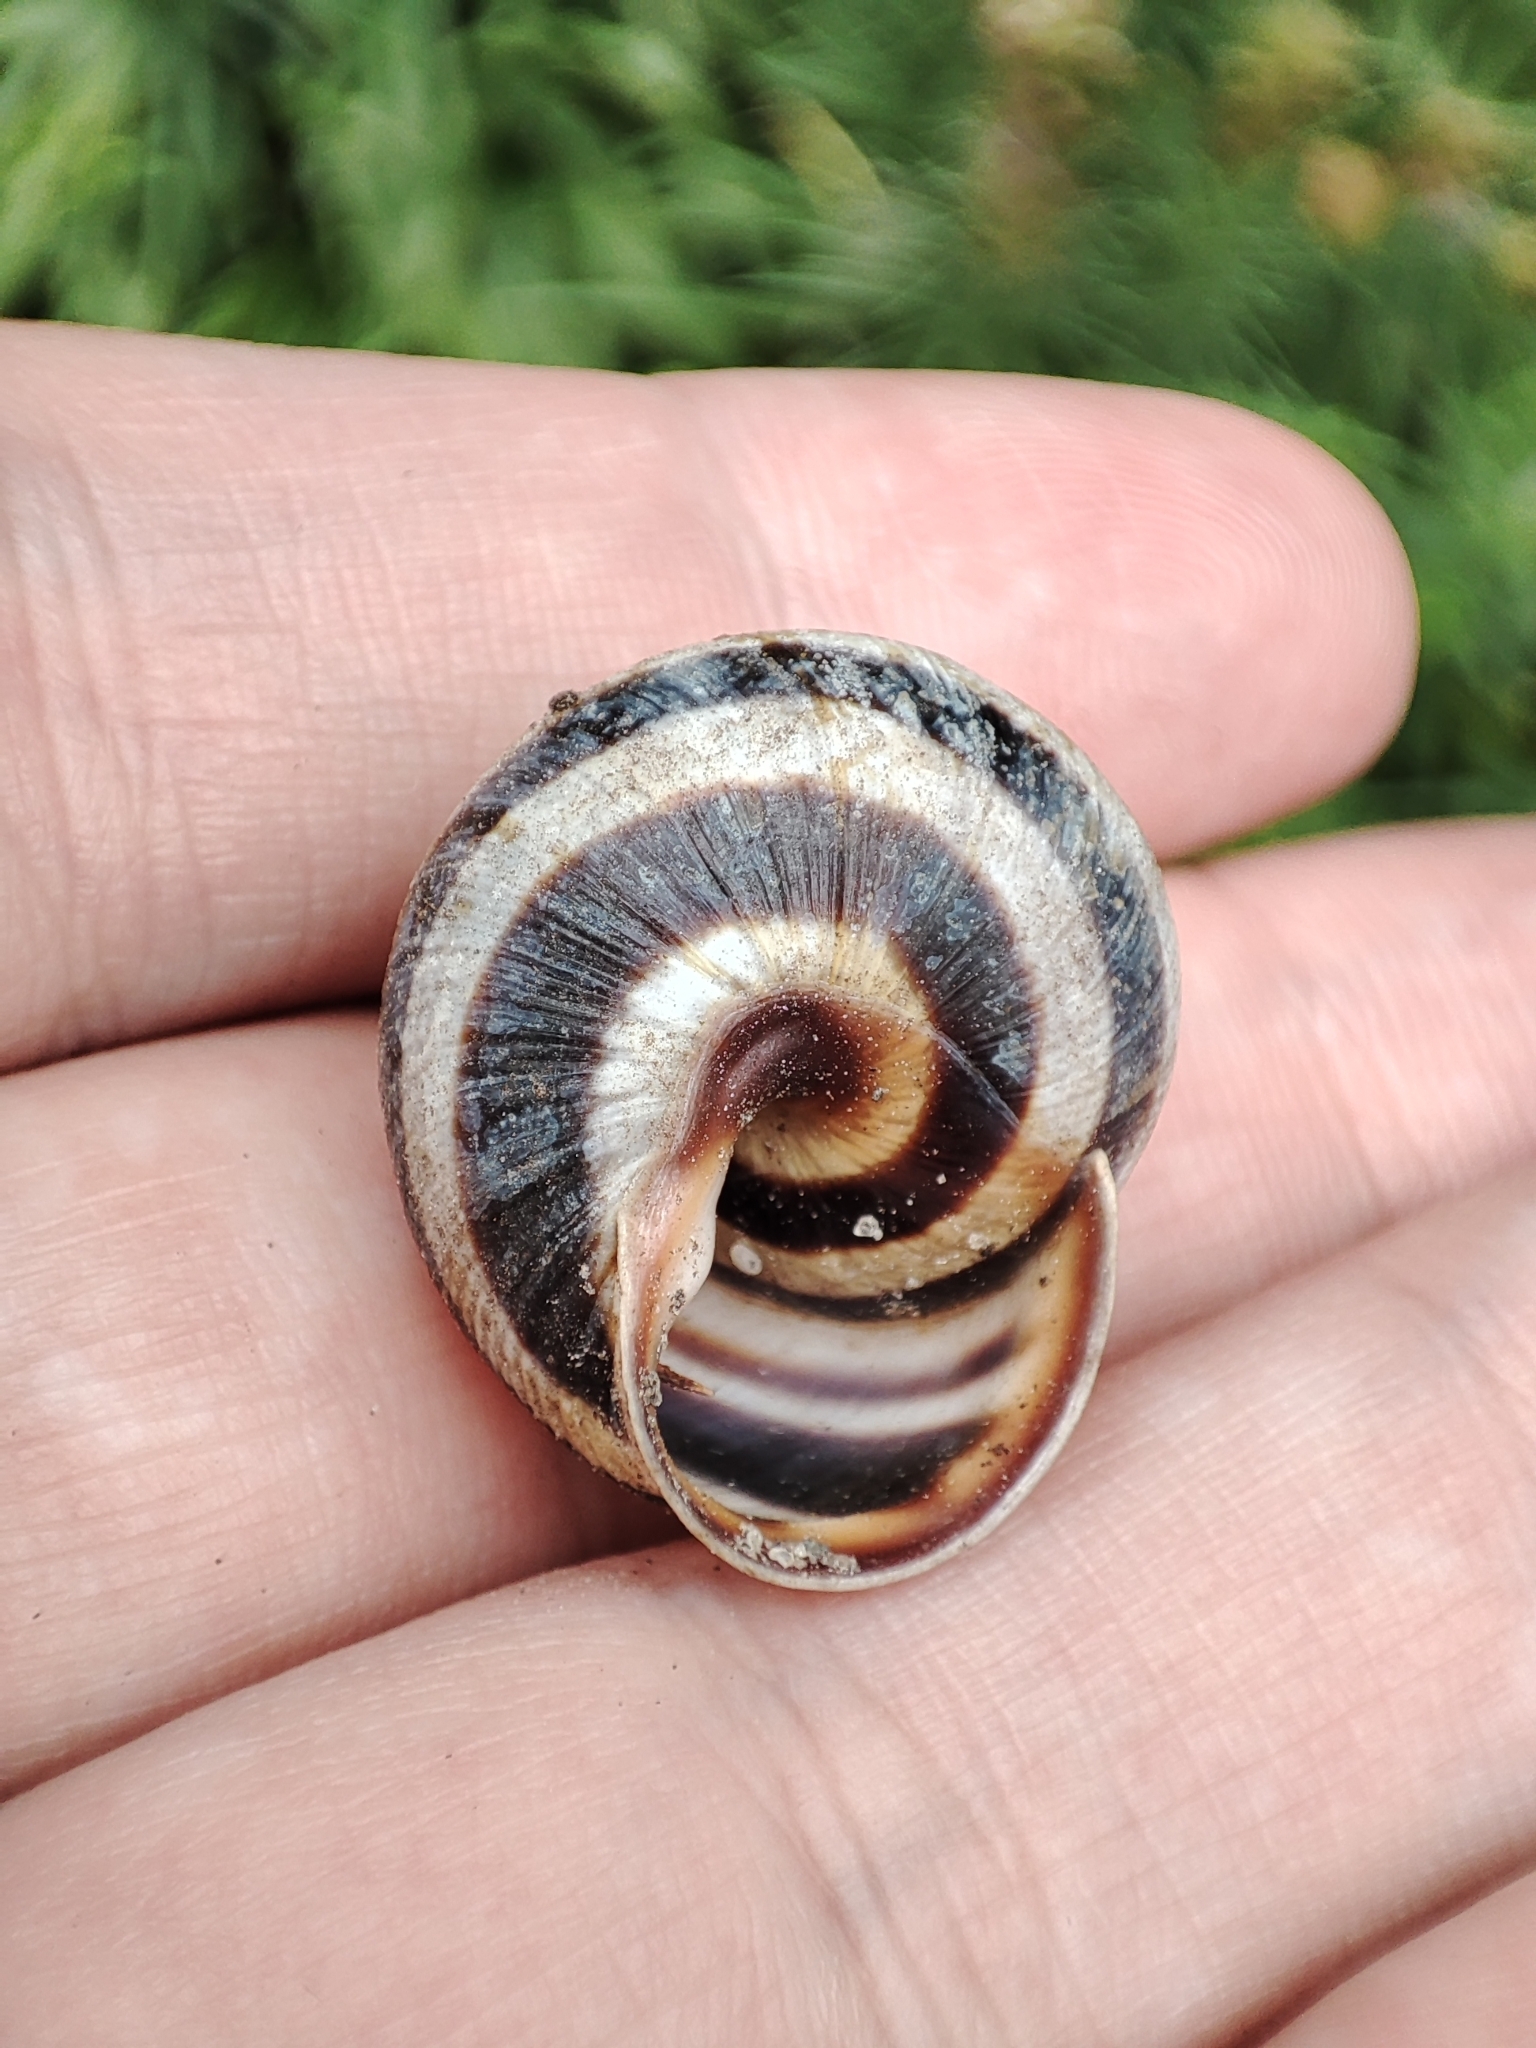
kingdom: Animalia
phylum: Mollusca
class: Gastropoda
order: Stylommatophora
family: Helicidae
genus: Caucasotachea
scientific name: Caucasotachea vindobonensis
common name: European helicid land snail
